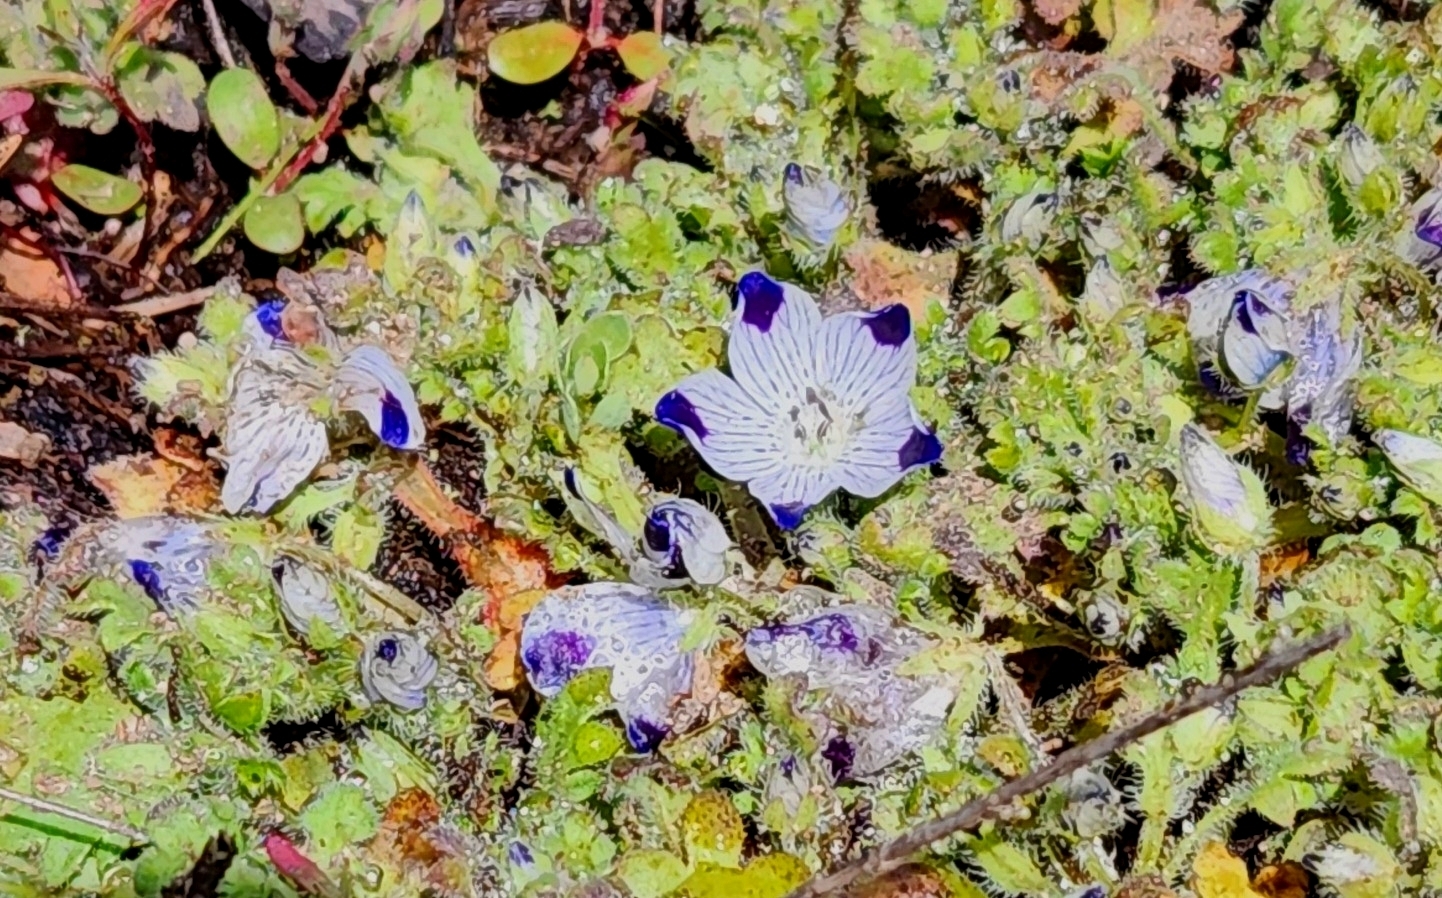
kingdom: Plantae
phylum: Tracheophyta
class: Magnoliopsida
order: Boraginales
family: Hydrophyllaceae
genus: Nemophila
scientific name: Nemophila maculata
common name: Fivespot
